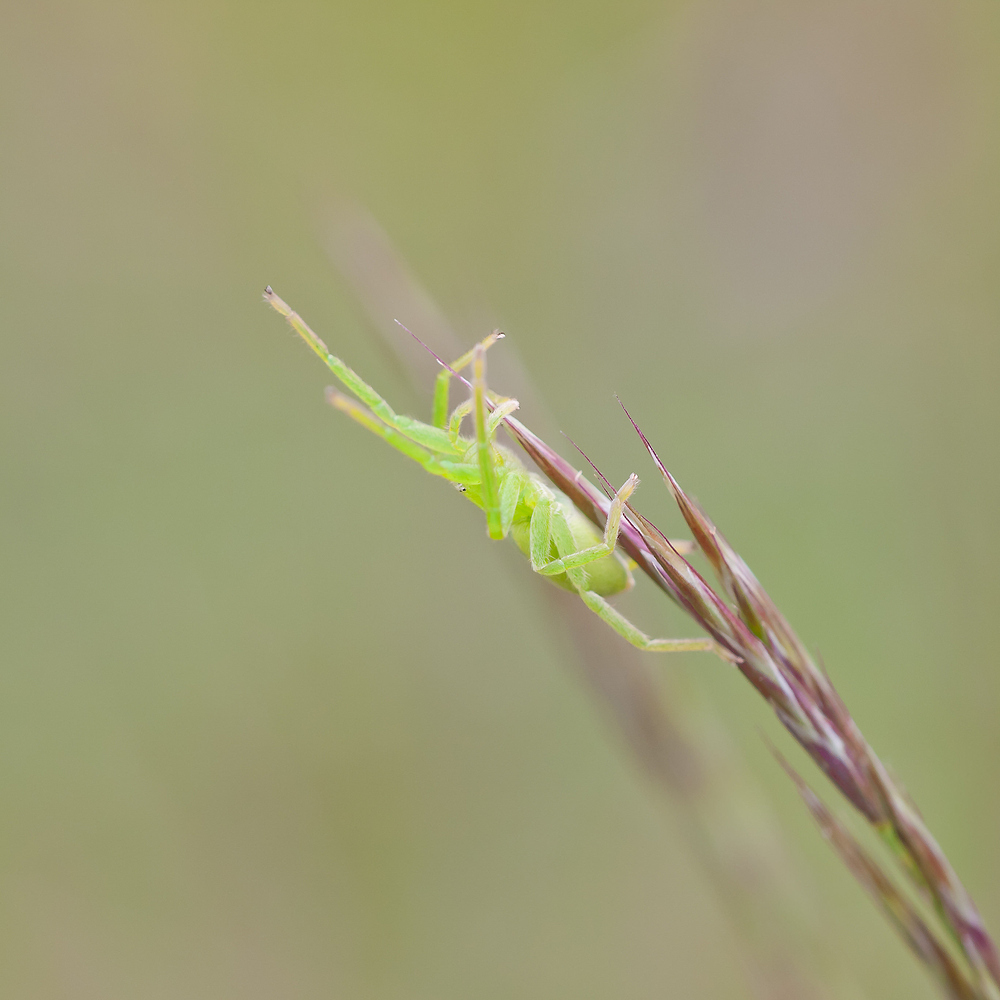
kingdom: Animalia
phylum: Arthropoda
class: Arachnida
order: Araneae
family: Sparassidae
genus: Micrommata
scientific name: Micrommata virescens
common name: Green spider
